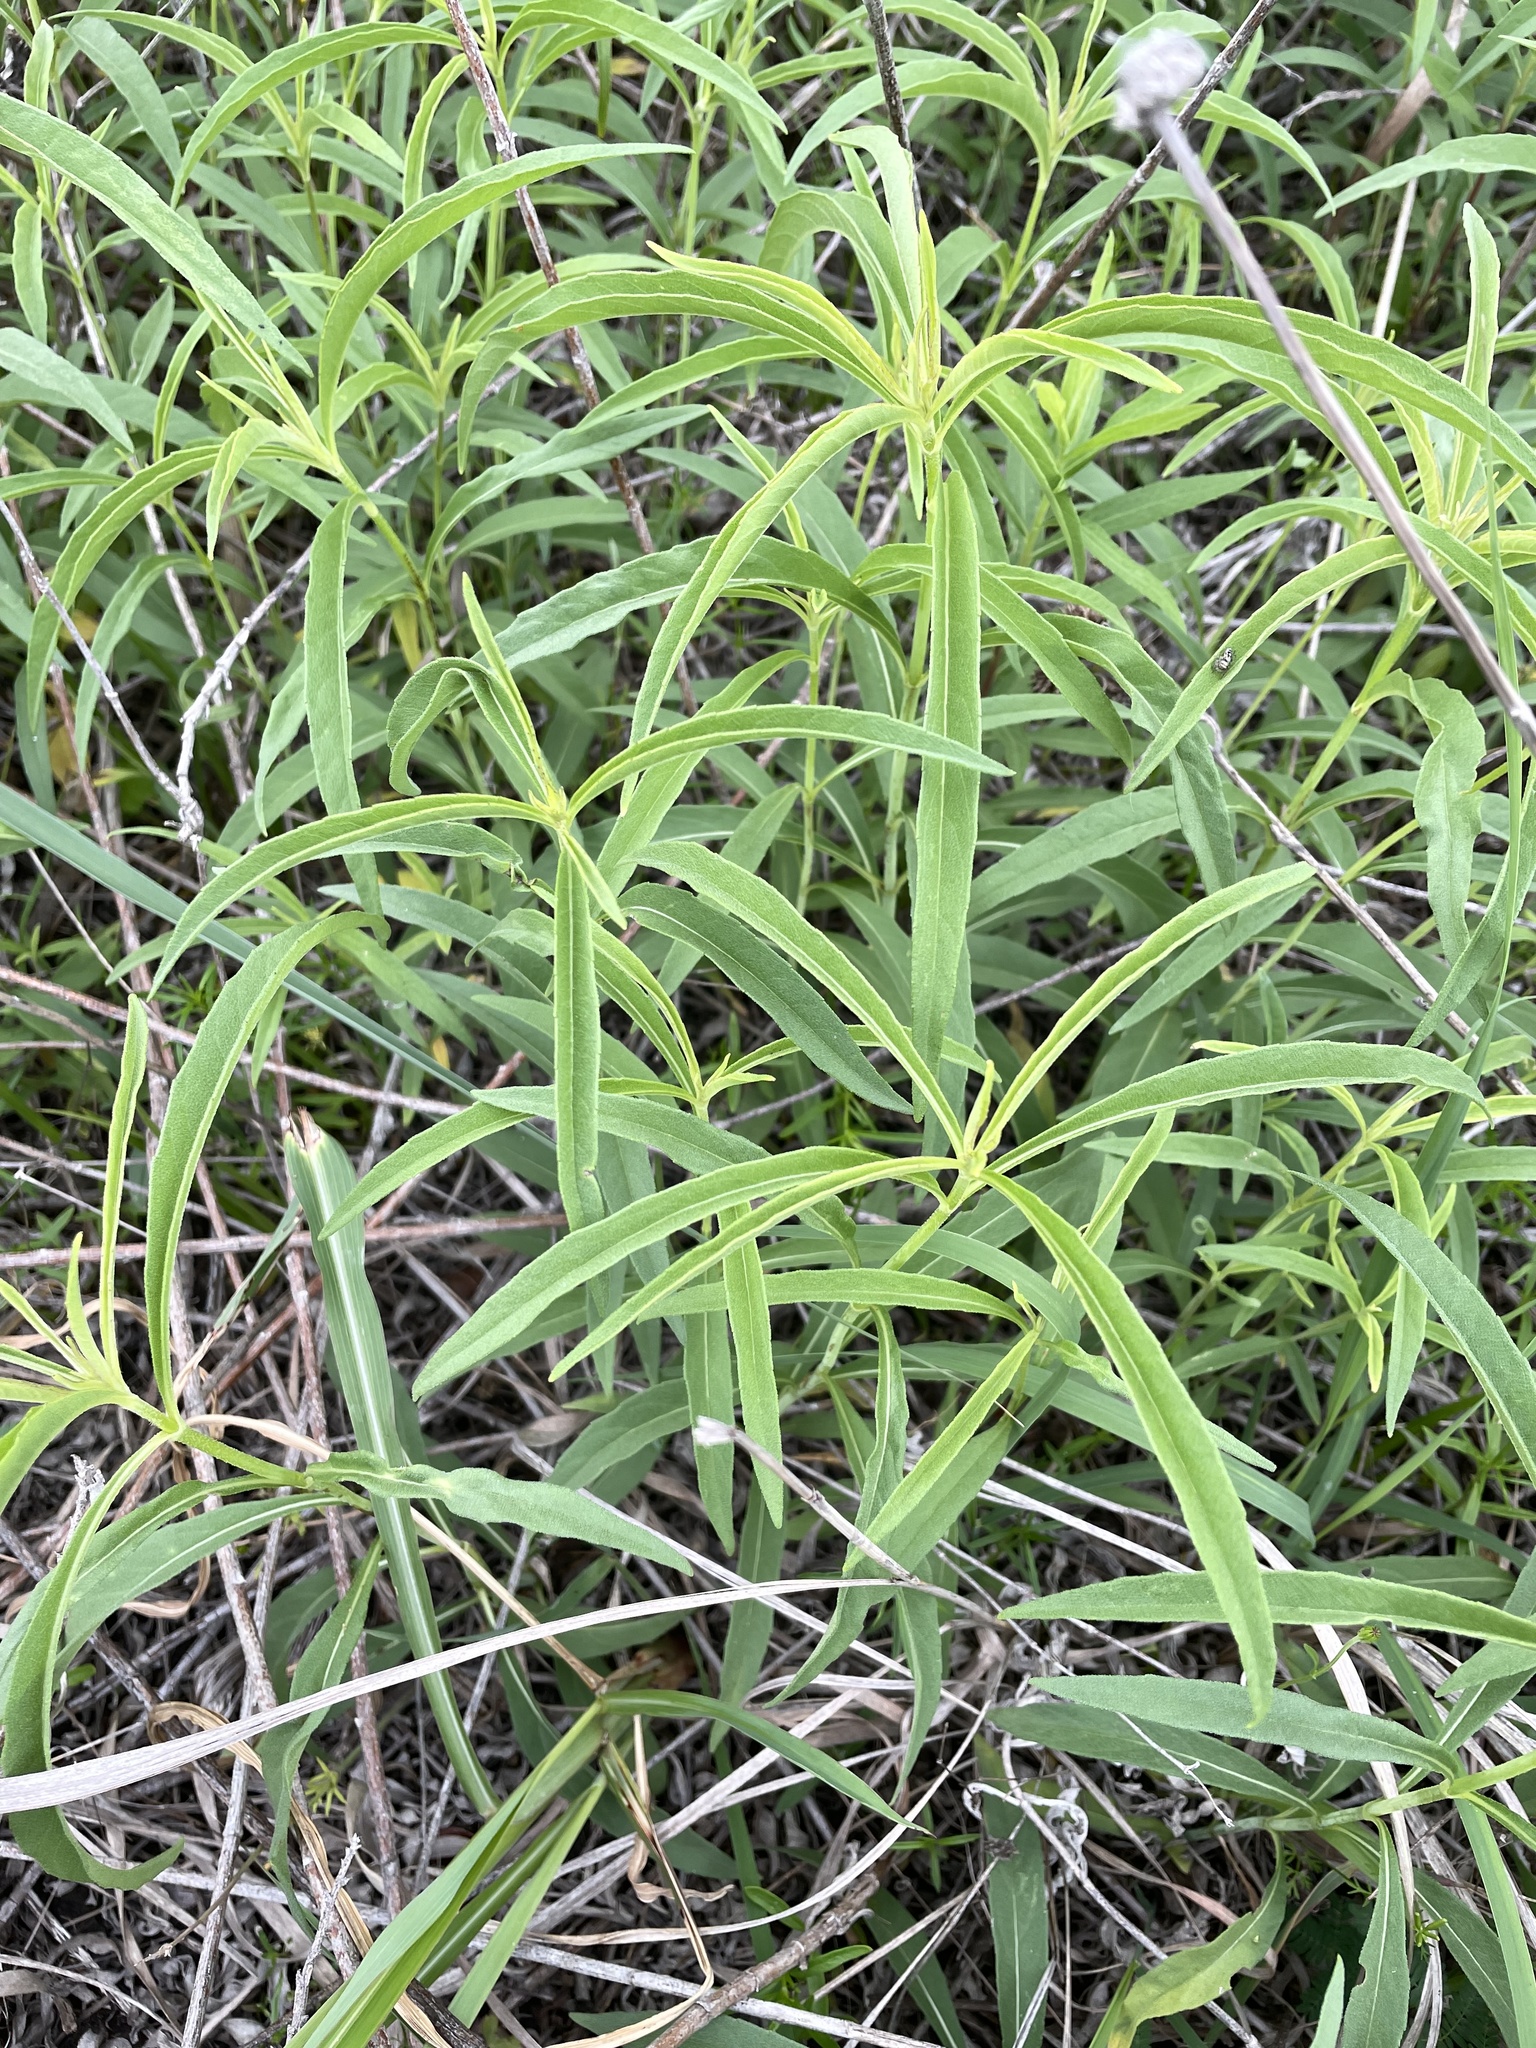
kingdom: Plantae
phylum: Tracheophyta
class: Magnoliopsida
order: Asterales
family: Asteraceae
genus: Helianthus
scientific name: Helianthus maximiliani
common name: Maximilian's sunflower
